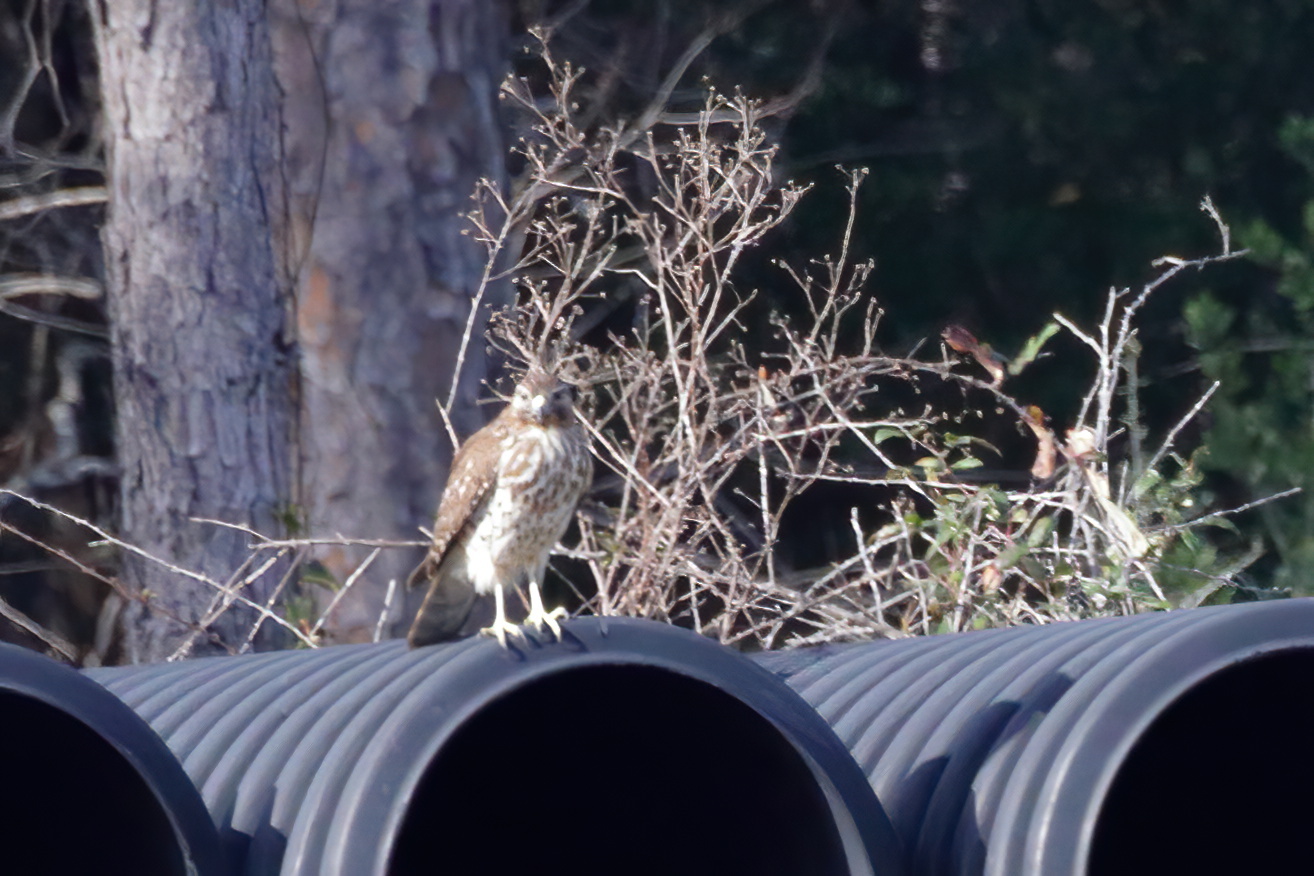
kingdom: Animalia
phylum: Chordata
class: Aves
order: Accipitriformes
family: Accipitridae
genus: Buteo
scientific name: Buteo lineatus
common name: Red-shouldered hawk
